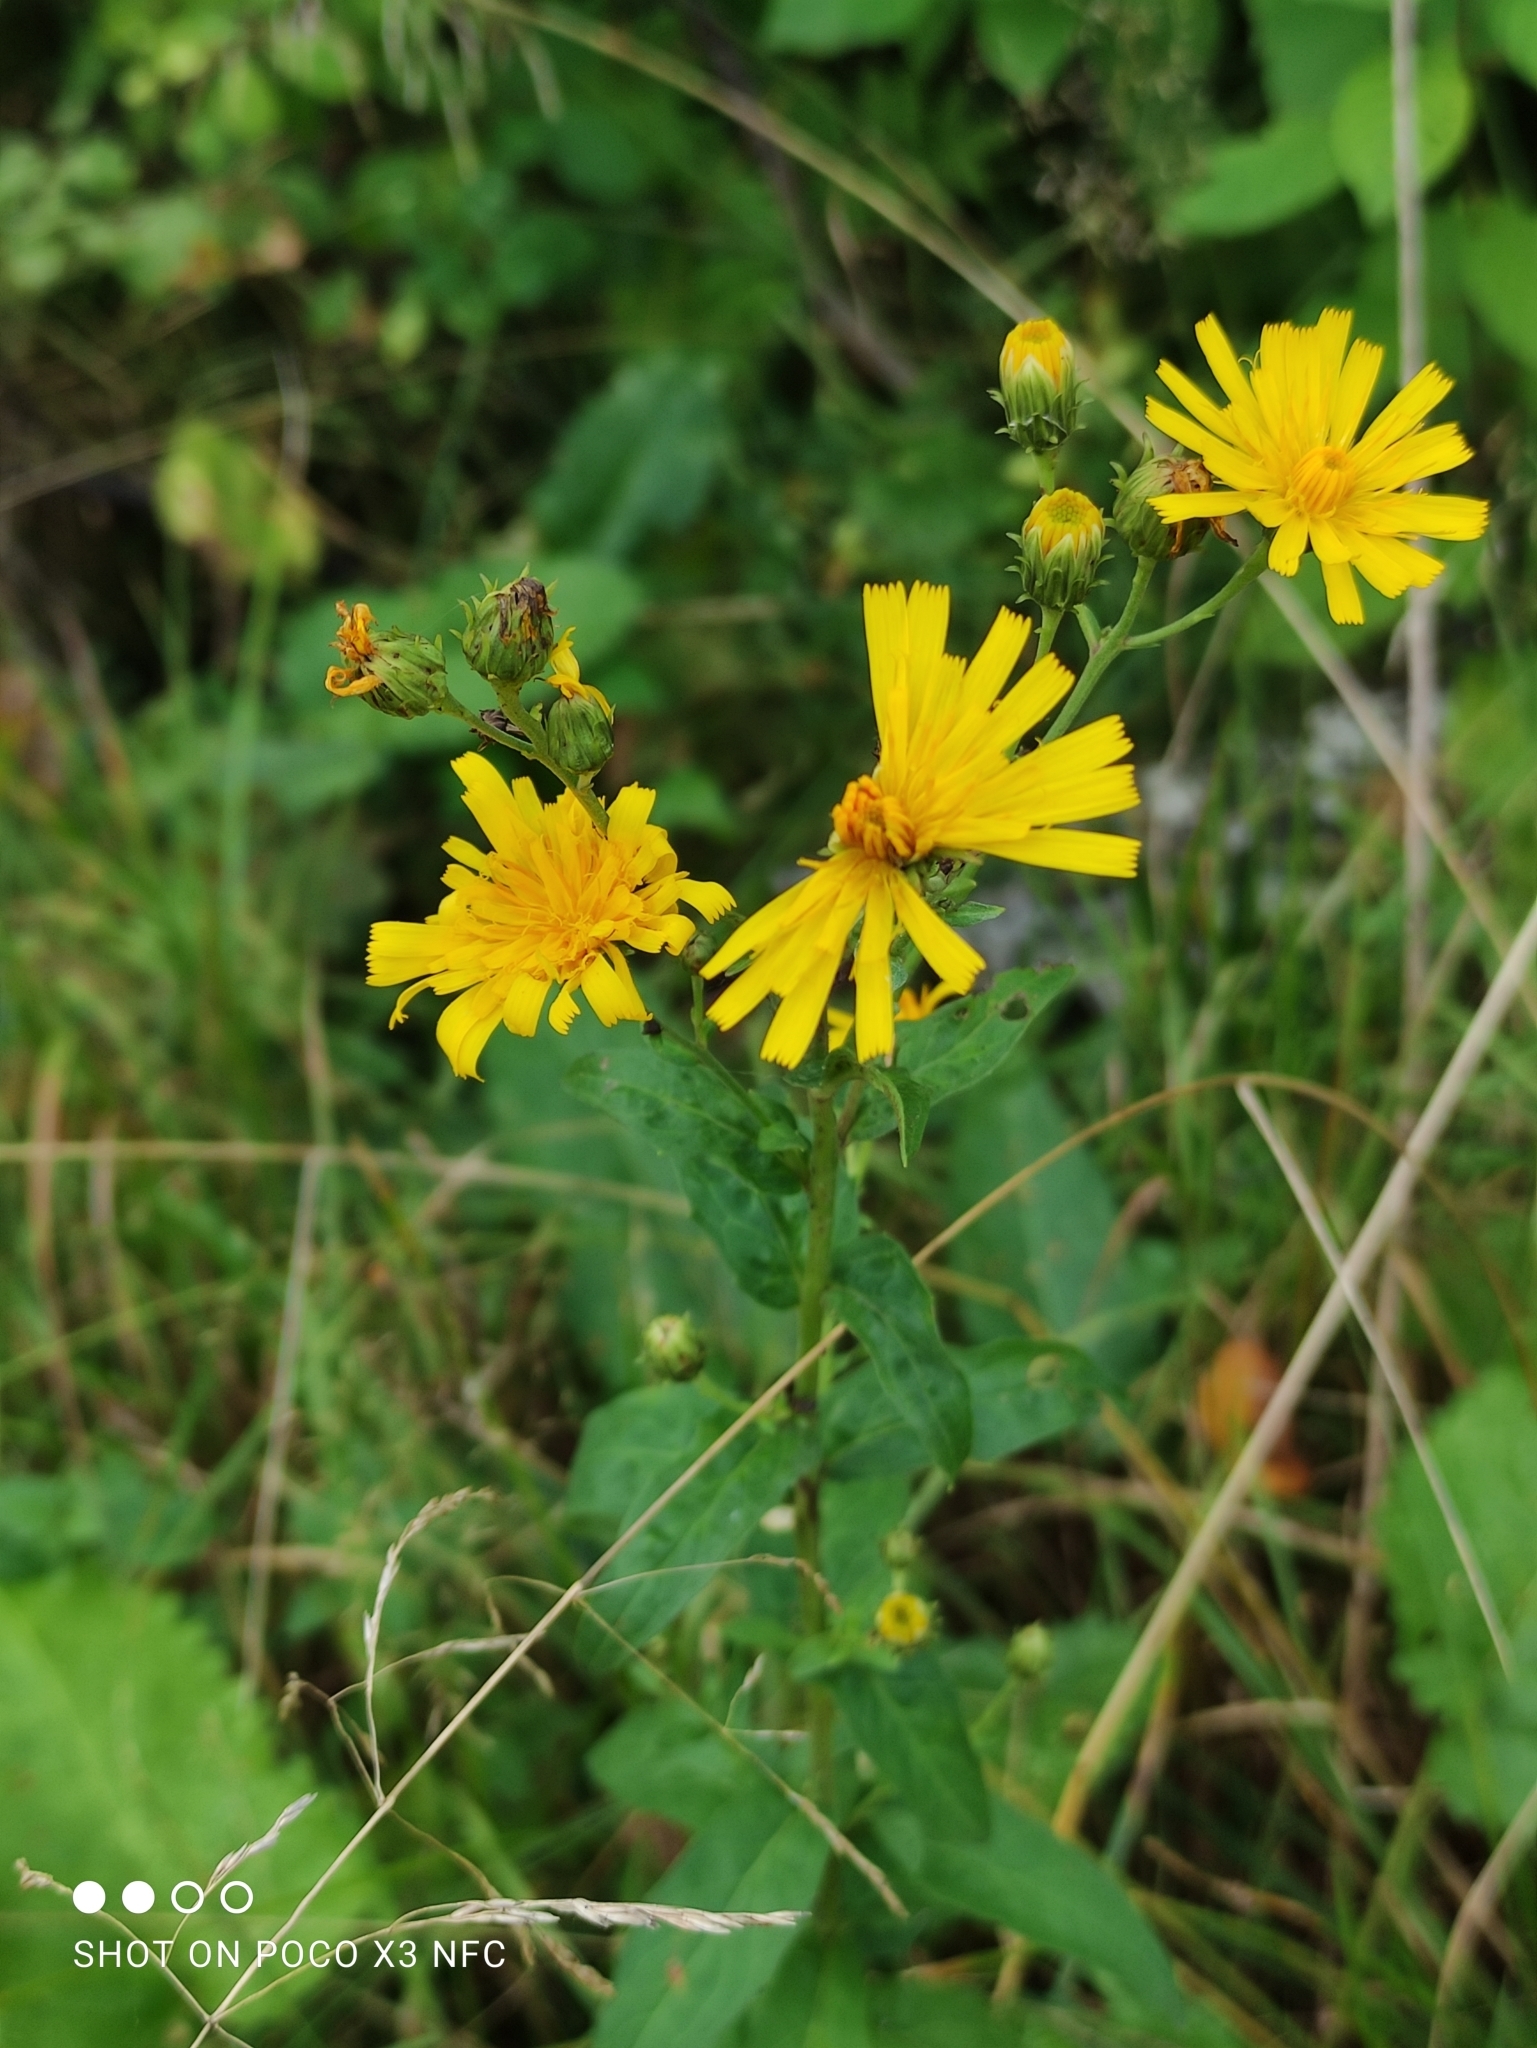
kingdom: Plantae
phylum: Tracheophyta
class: Magnoliopsida
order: Asterales
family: Asteraceae
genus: Hieracium
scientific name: Hieracium umbellatum
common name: Northern hawkweed
